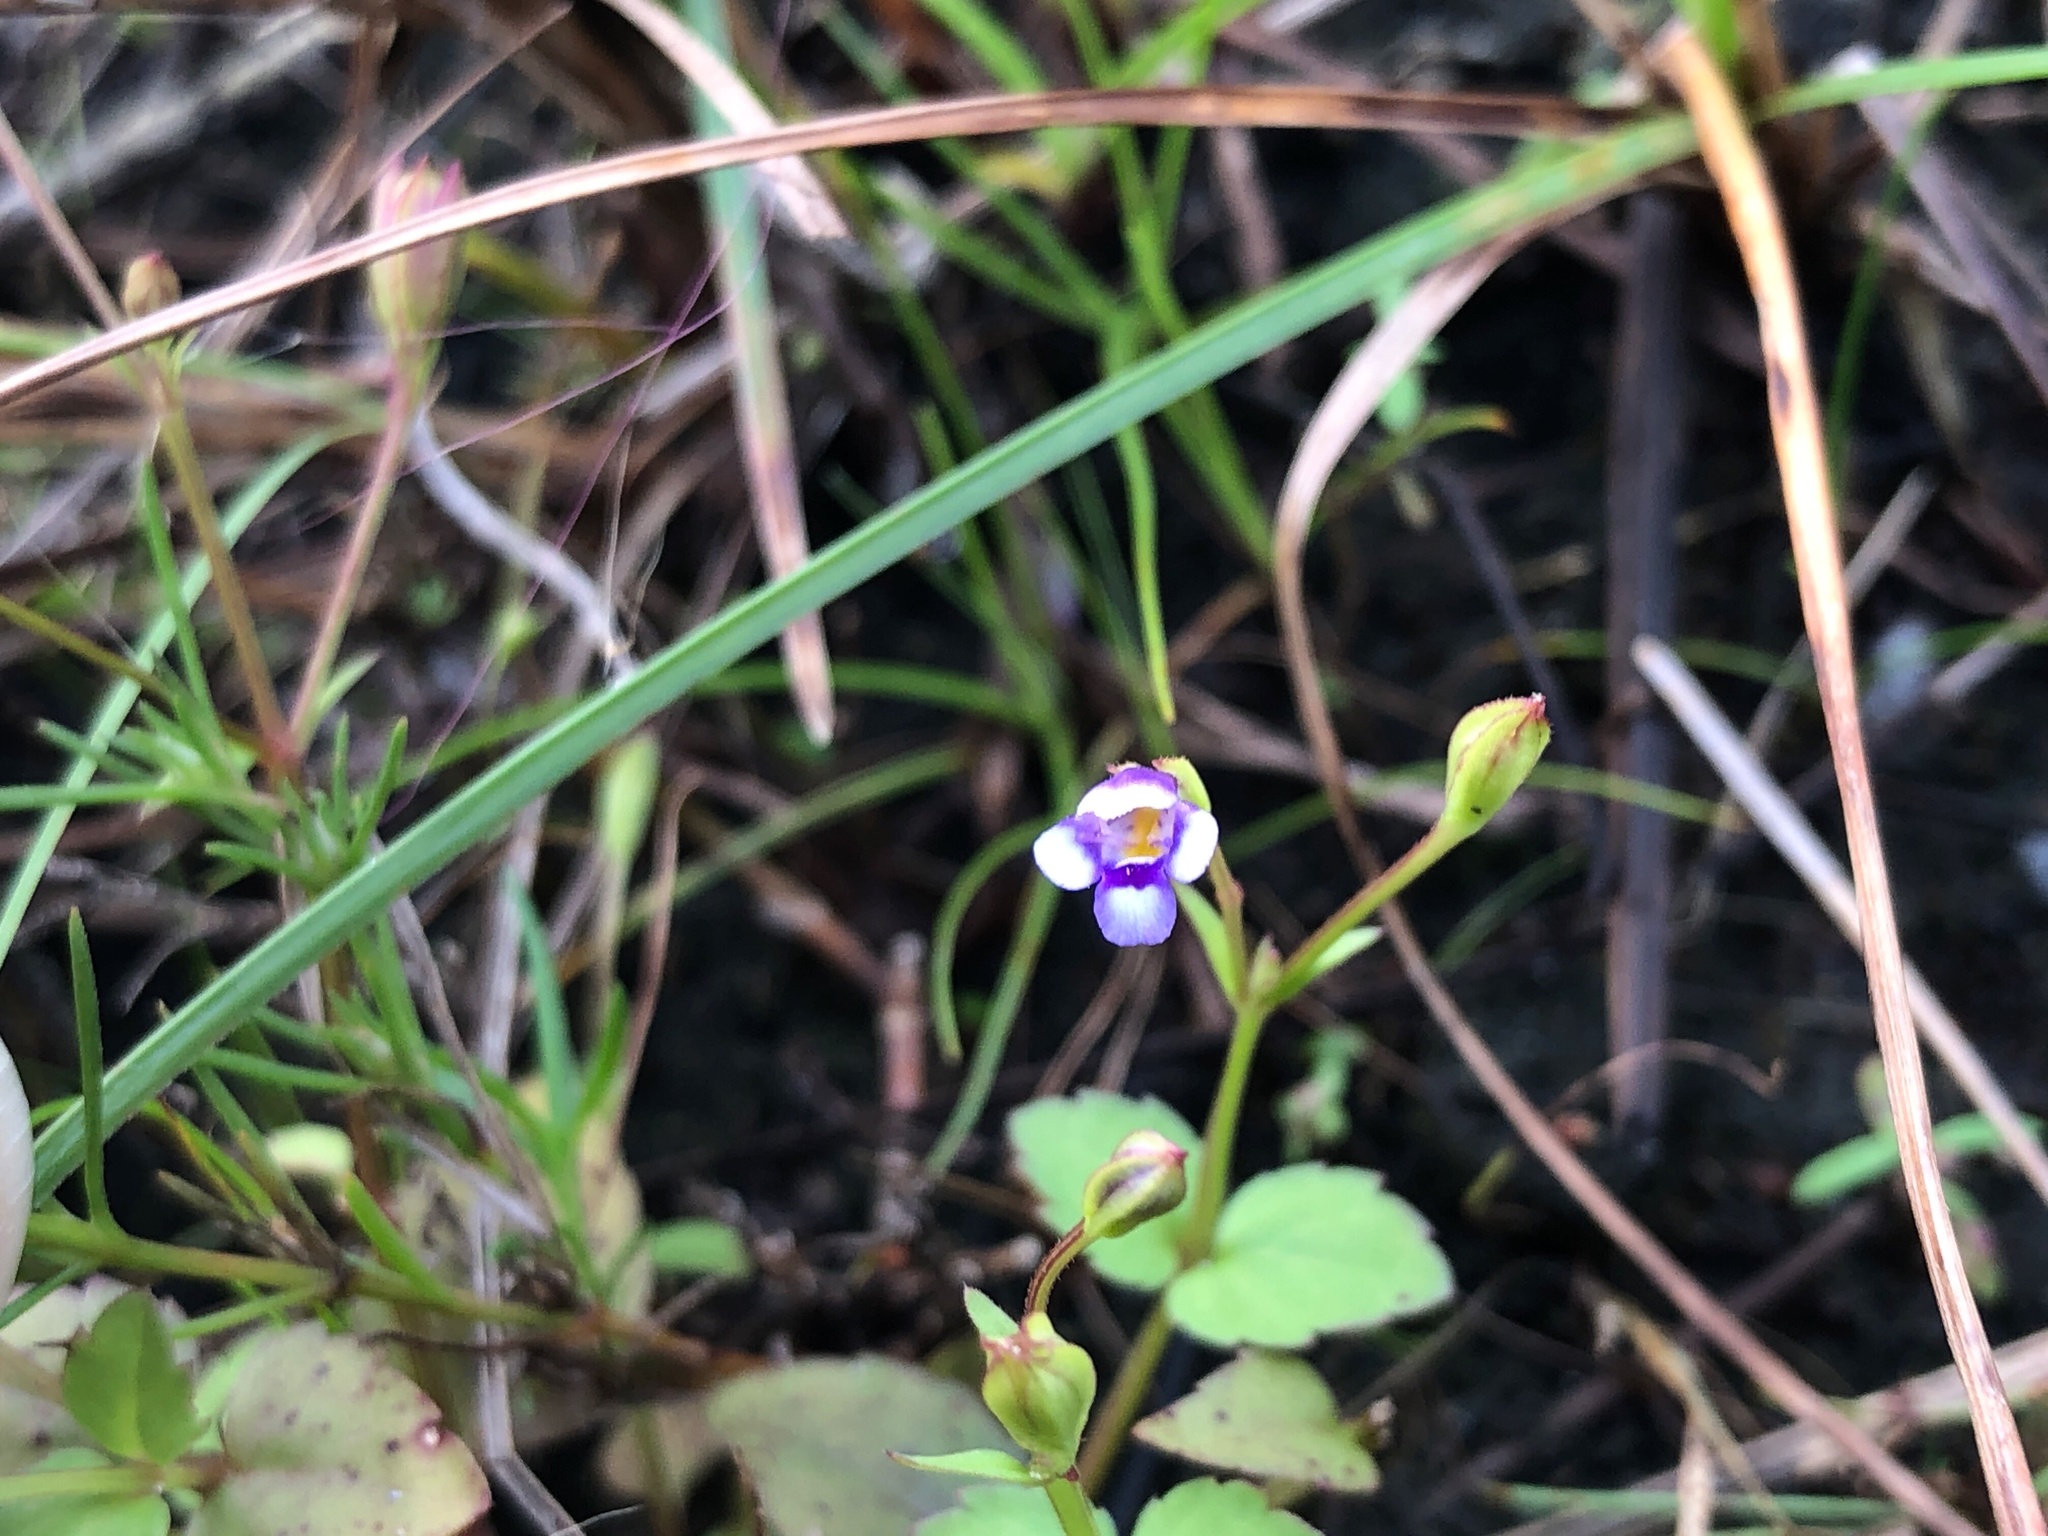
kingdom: Plantae
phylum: Tracheophyta
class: Magnoliopsida
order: Lamiales
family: Linderniaceae
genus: Torenia
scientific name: Torenia crustacea
